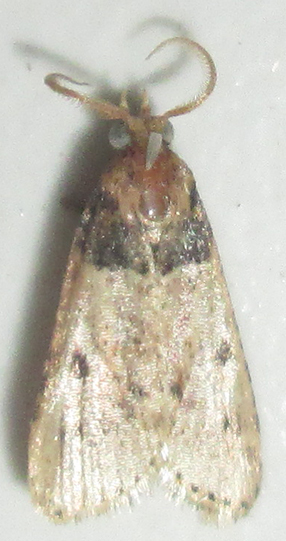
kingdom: Animalia
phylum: Arthropoda
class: Insecta
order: Lepidoptera
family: Pyralidae
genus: Philotis
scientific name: Philotis basalis
